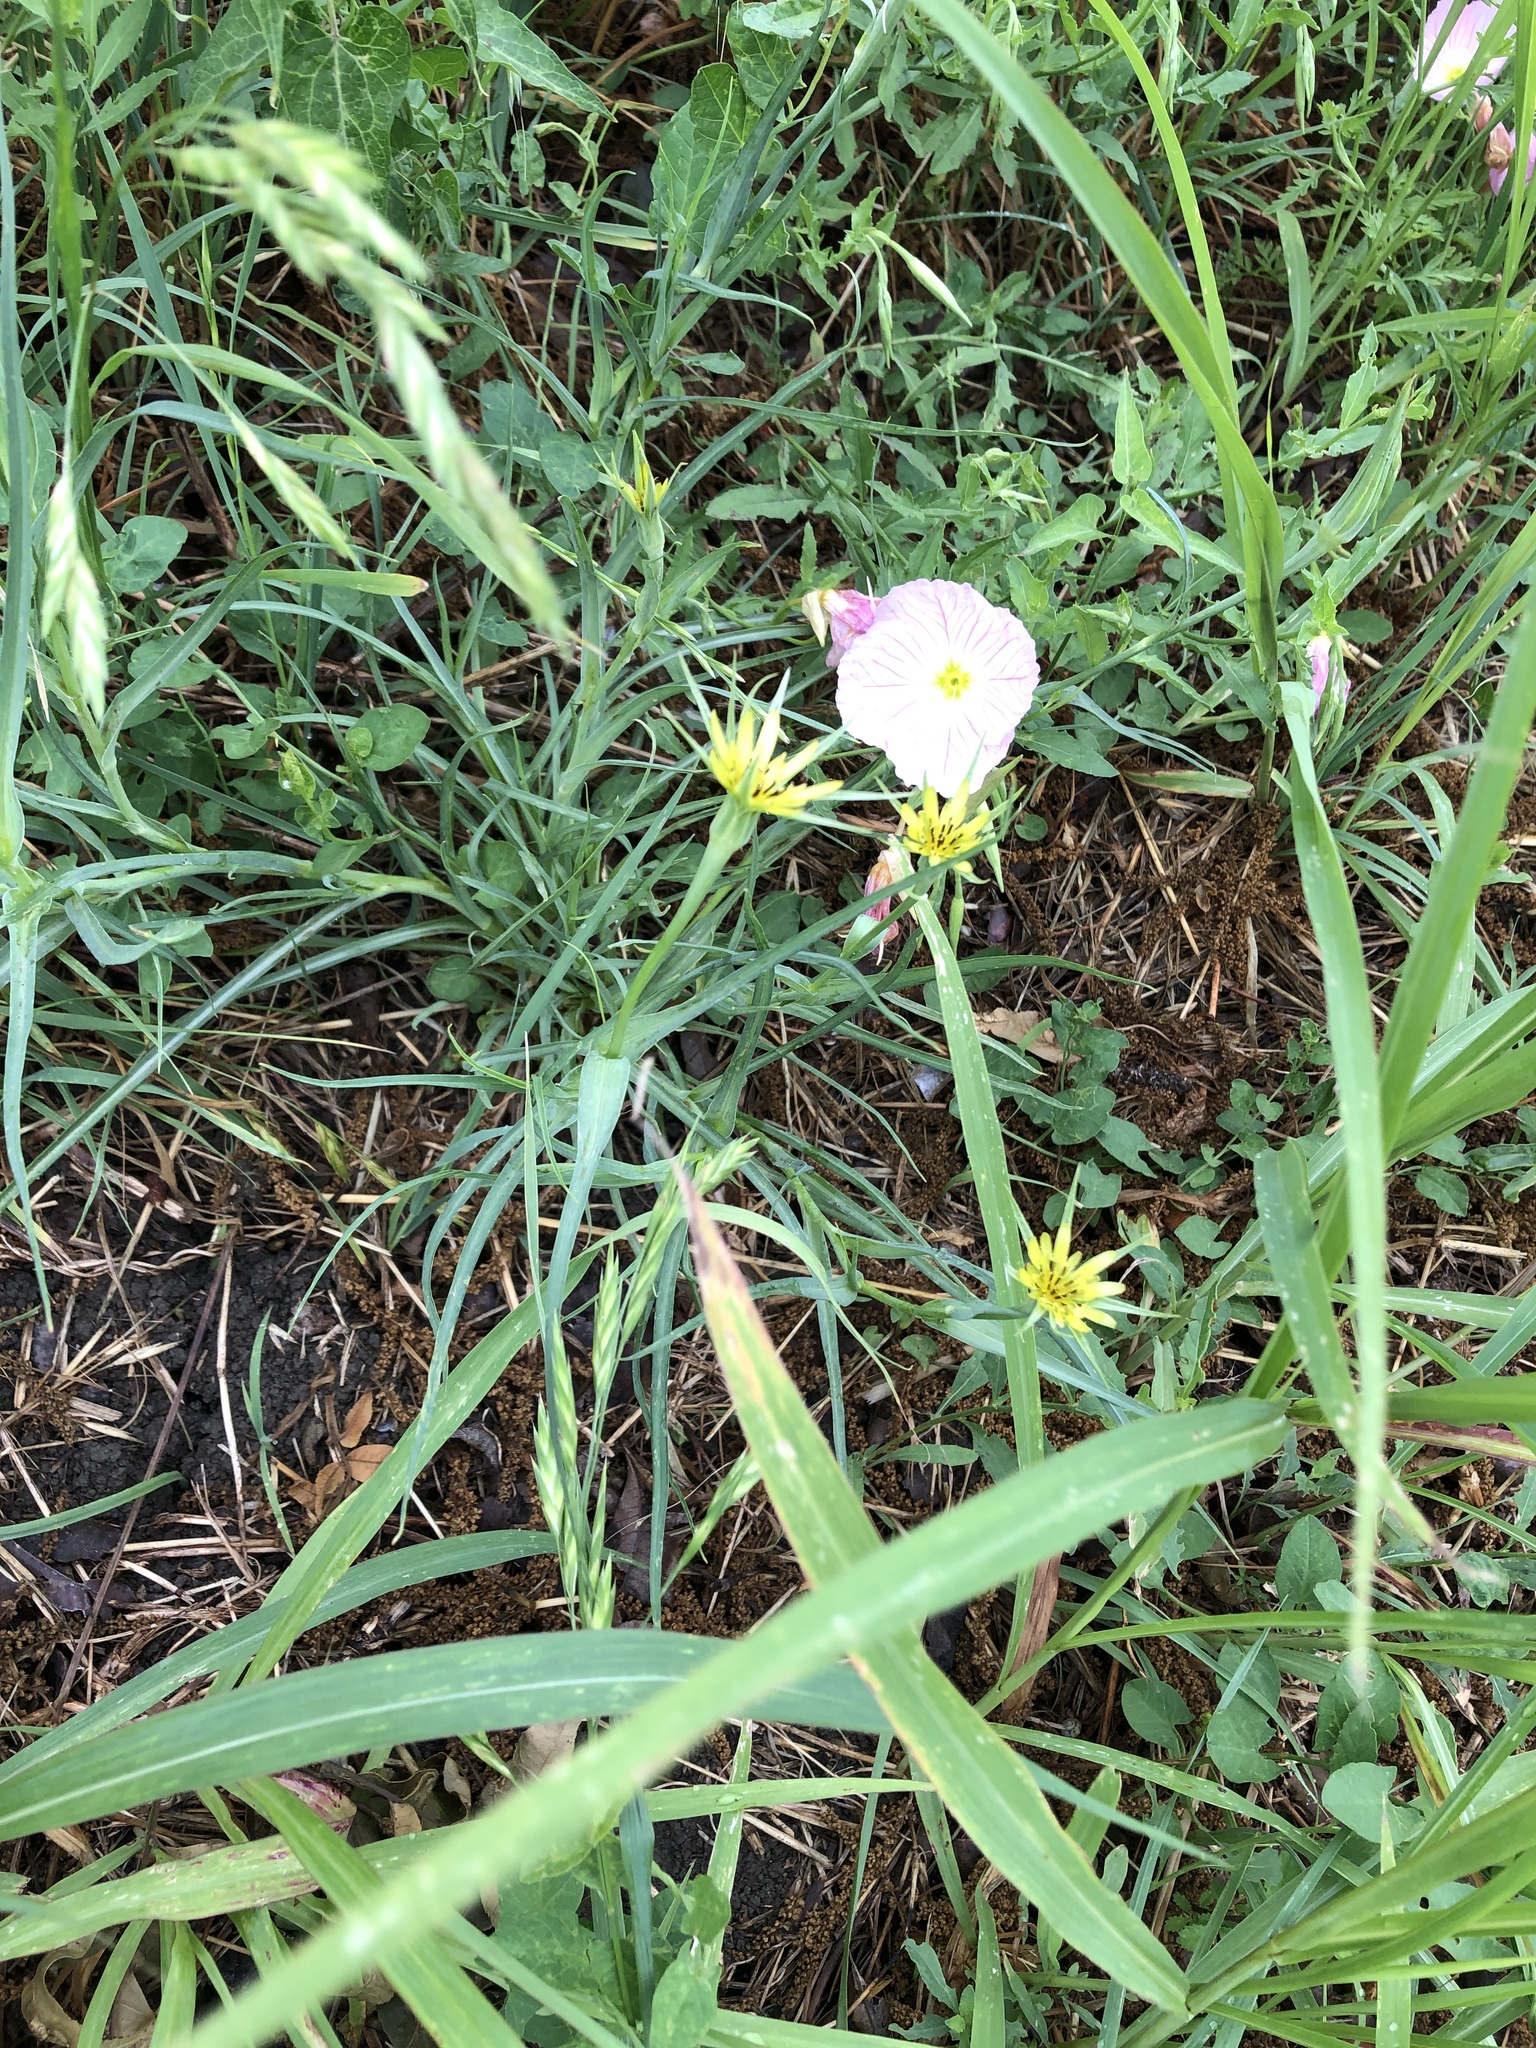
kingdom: Plantae
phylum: Tracheophyta
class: Magnoliopsida
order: Asterales
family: Asteraceae
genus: Tragopogon
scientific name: Tragopogon dubius
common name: Yellow salsify
